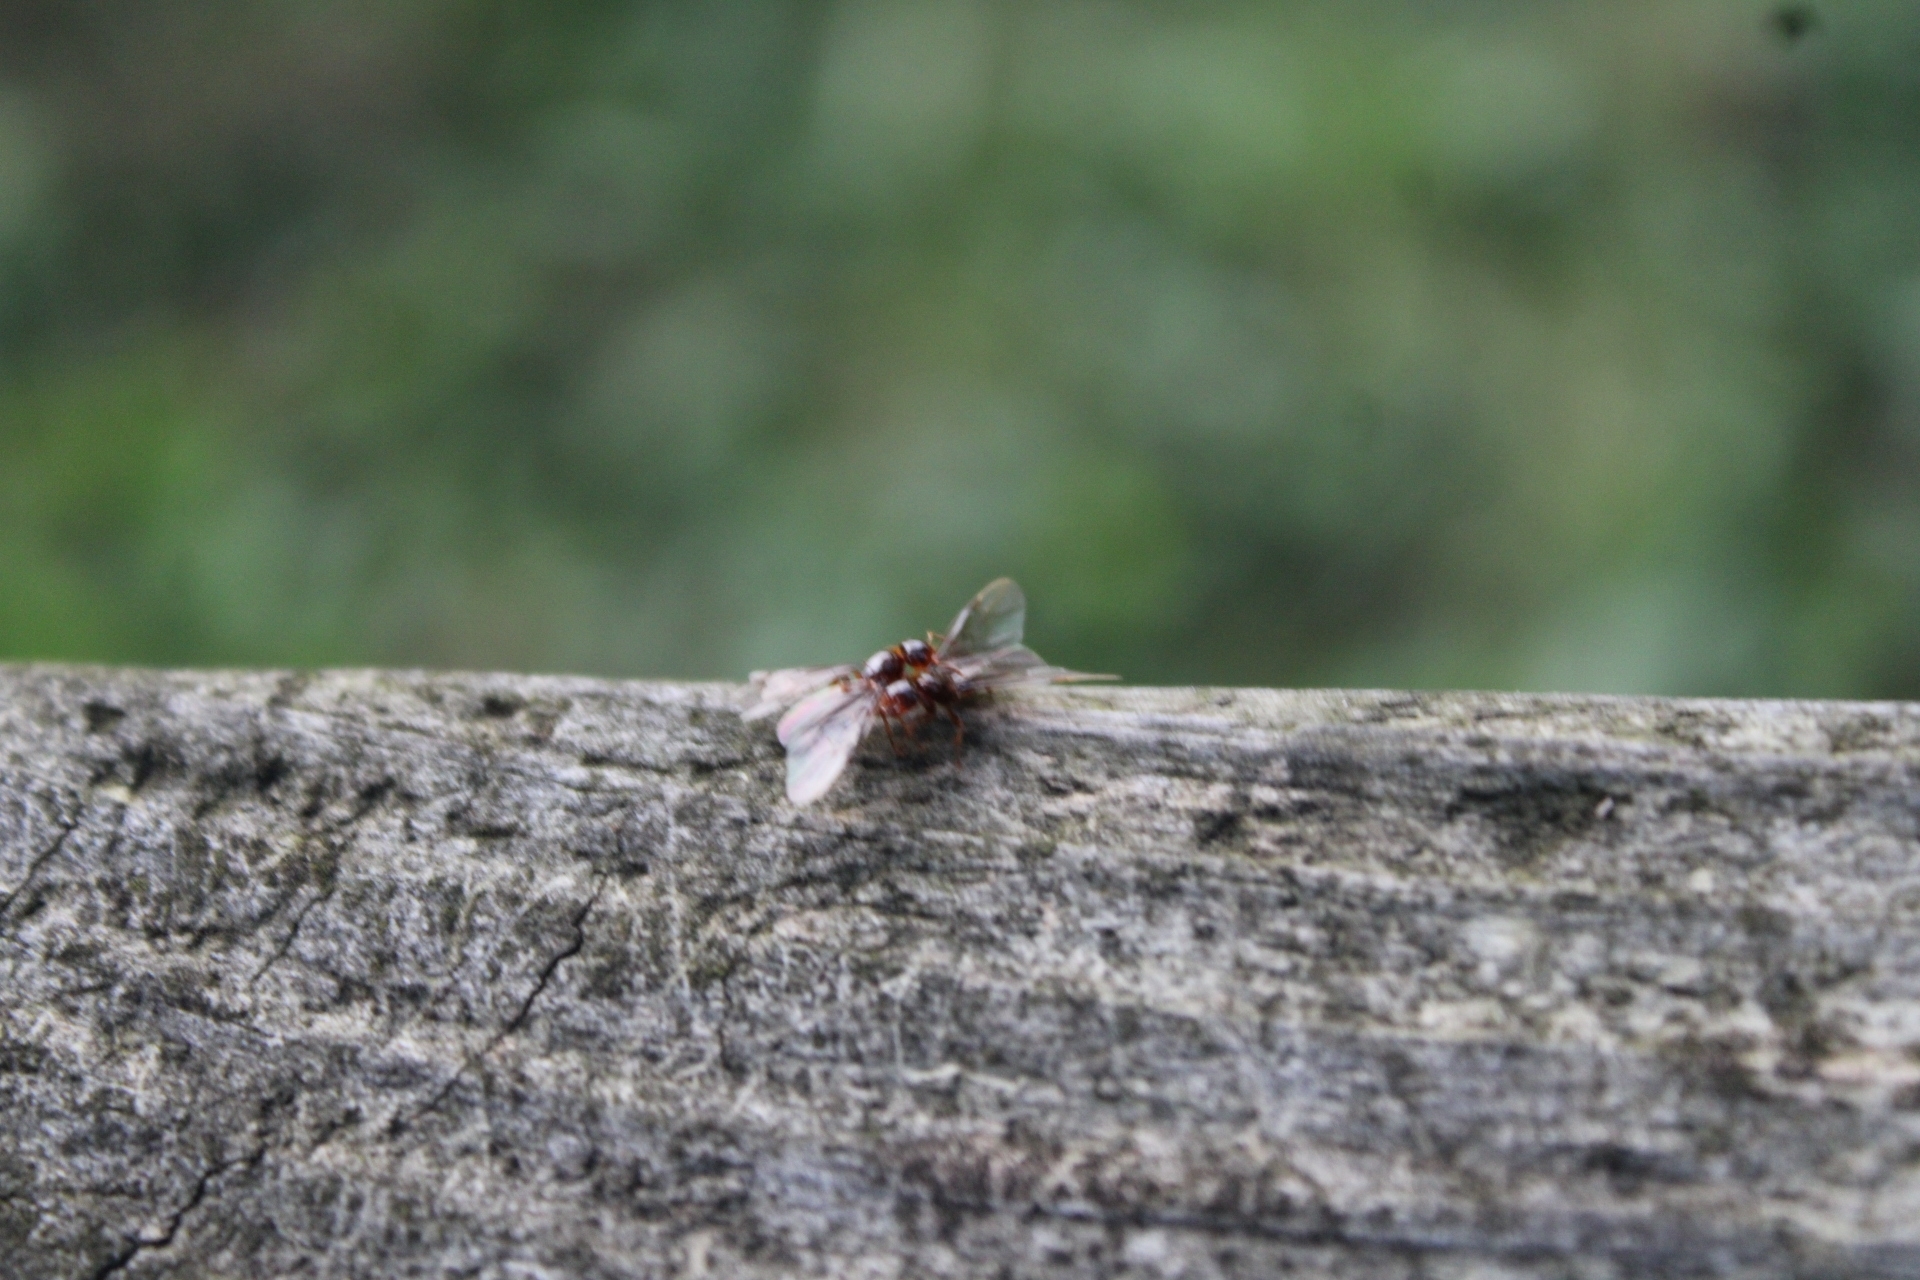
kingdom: Animalia
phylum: Arthropoda
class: Insecta
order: Hymenoptera
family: Formicidae
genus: Lasius
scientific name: Lasius claviger
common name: Common citronella ant
